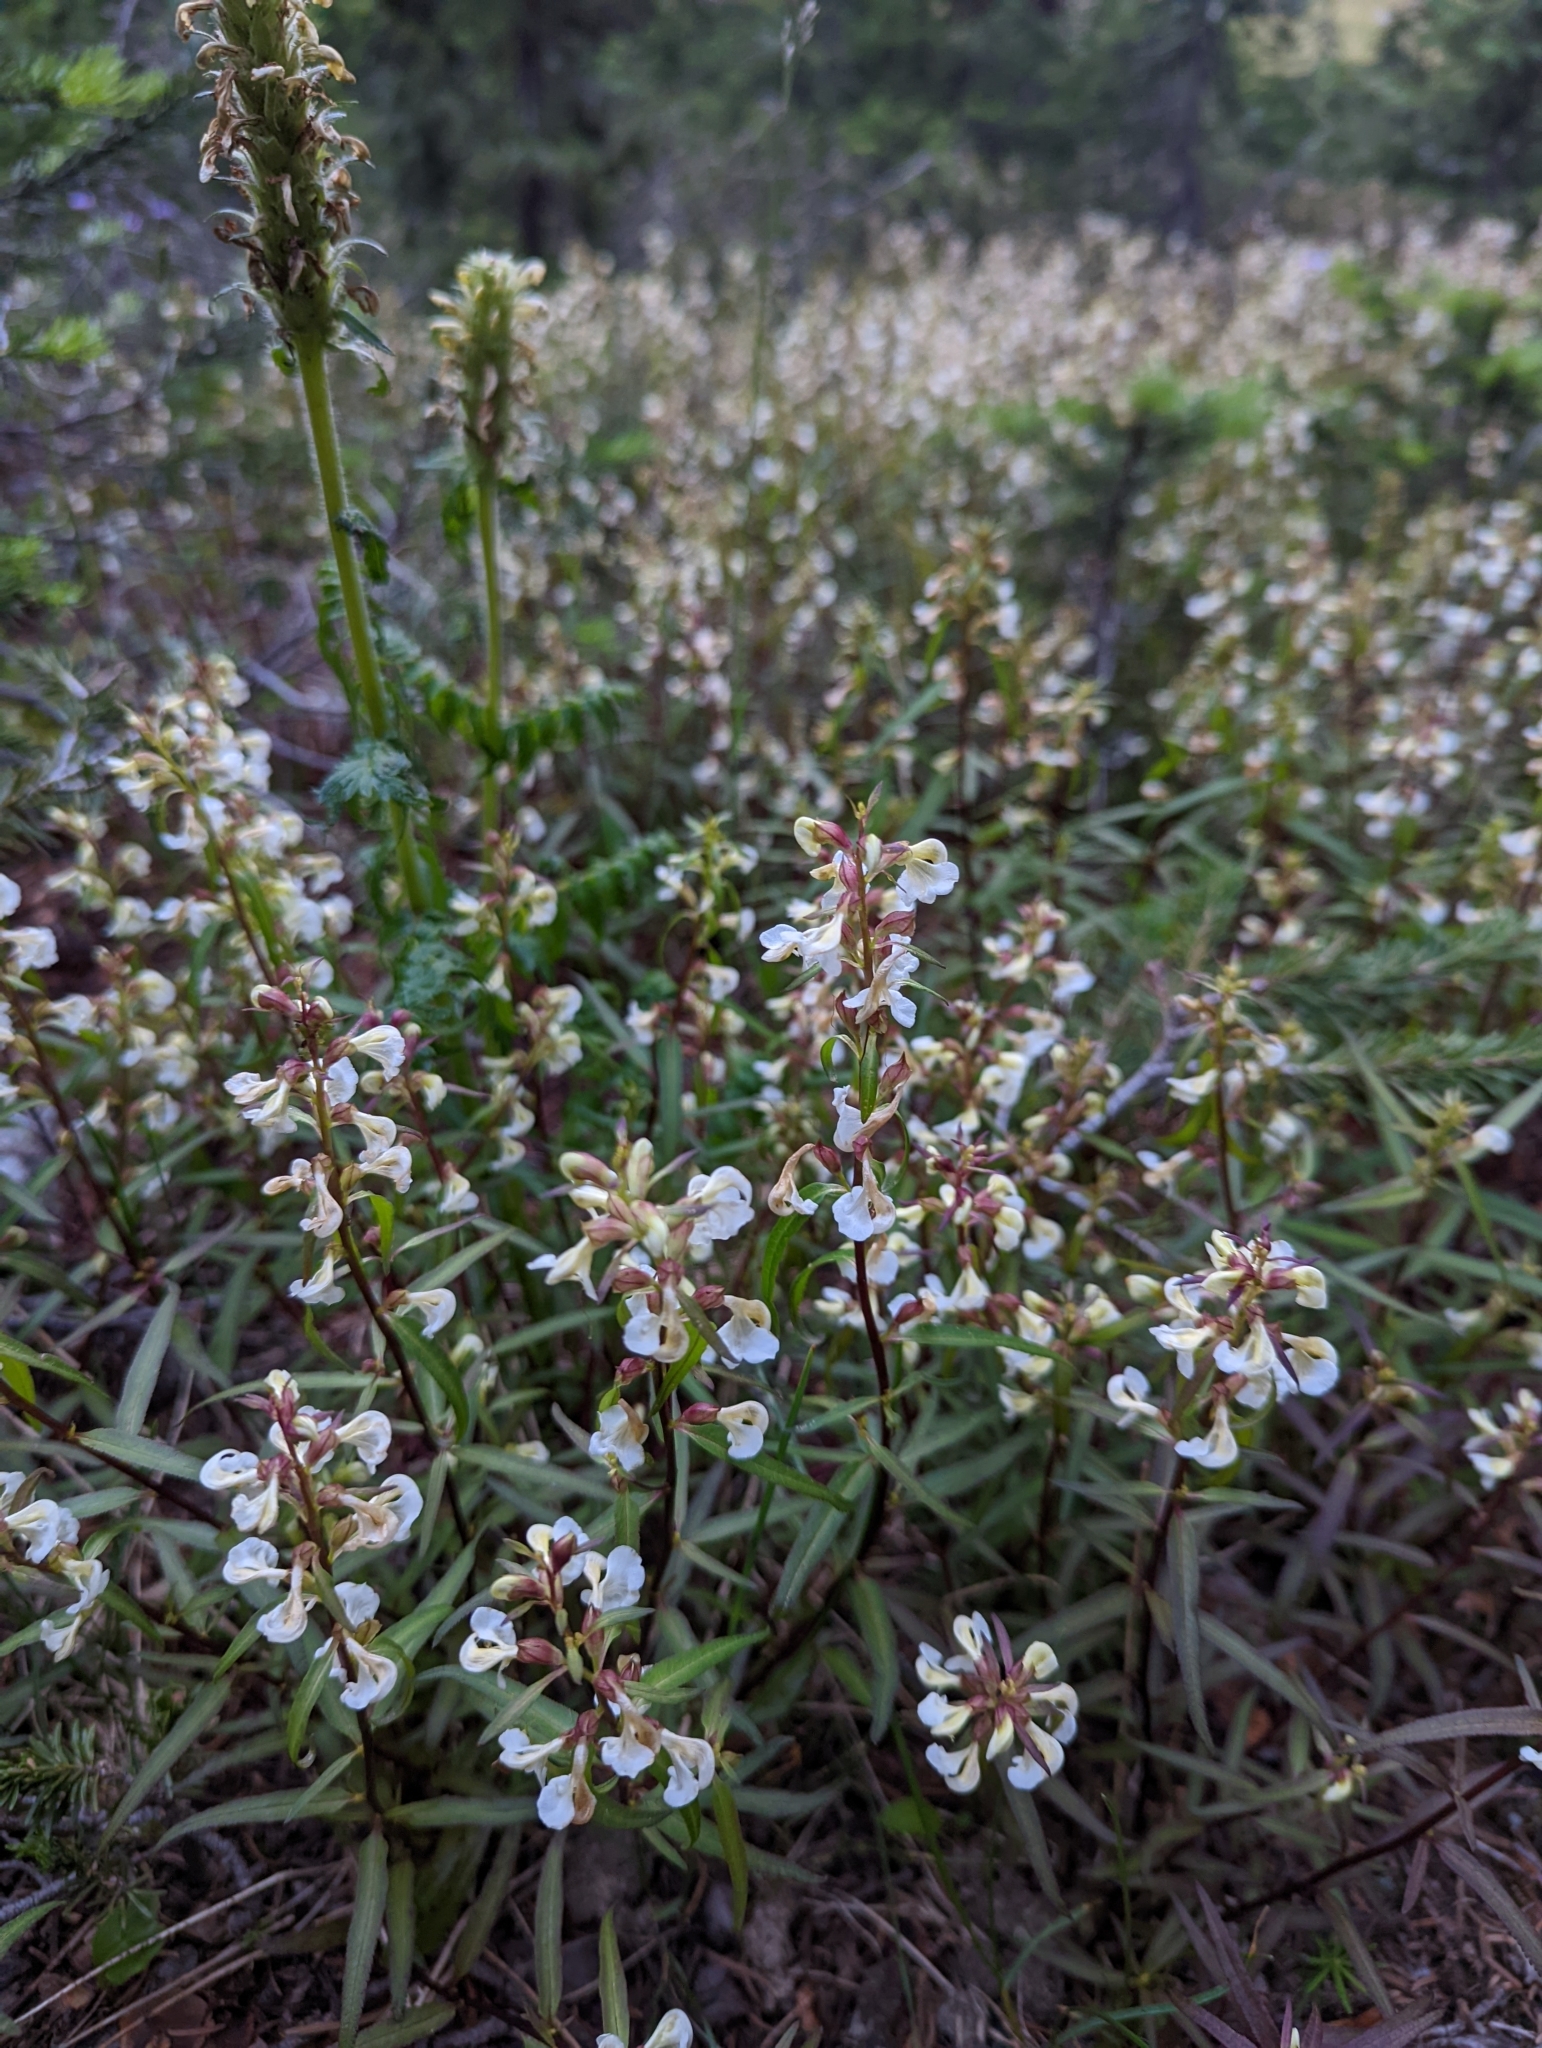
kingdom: Plantae
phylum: Tracheophyta
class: Magnoliopsida
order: Lamiales
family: Orobanchaceae
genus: Pedicularis
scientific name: Pedicularis racemosa
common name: Leafy lousewort
